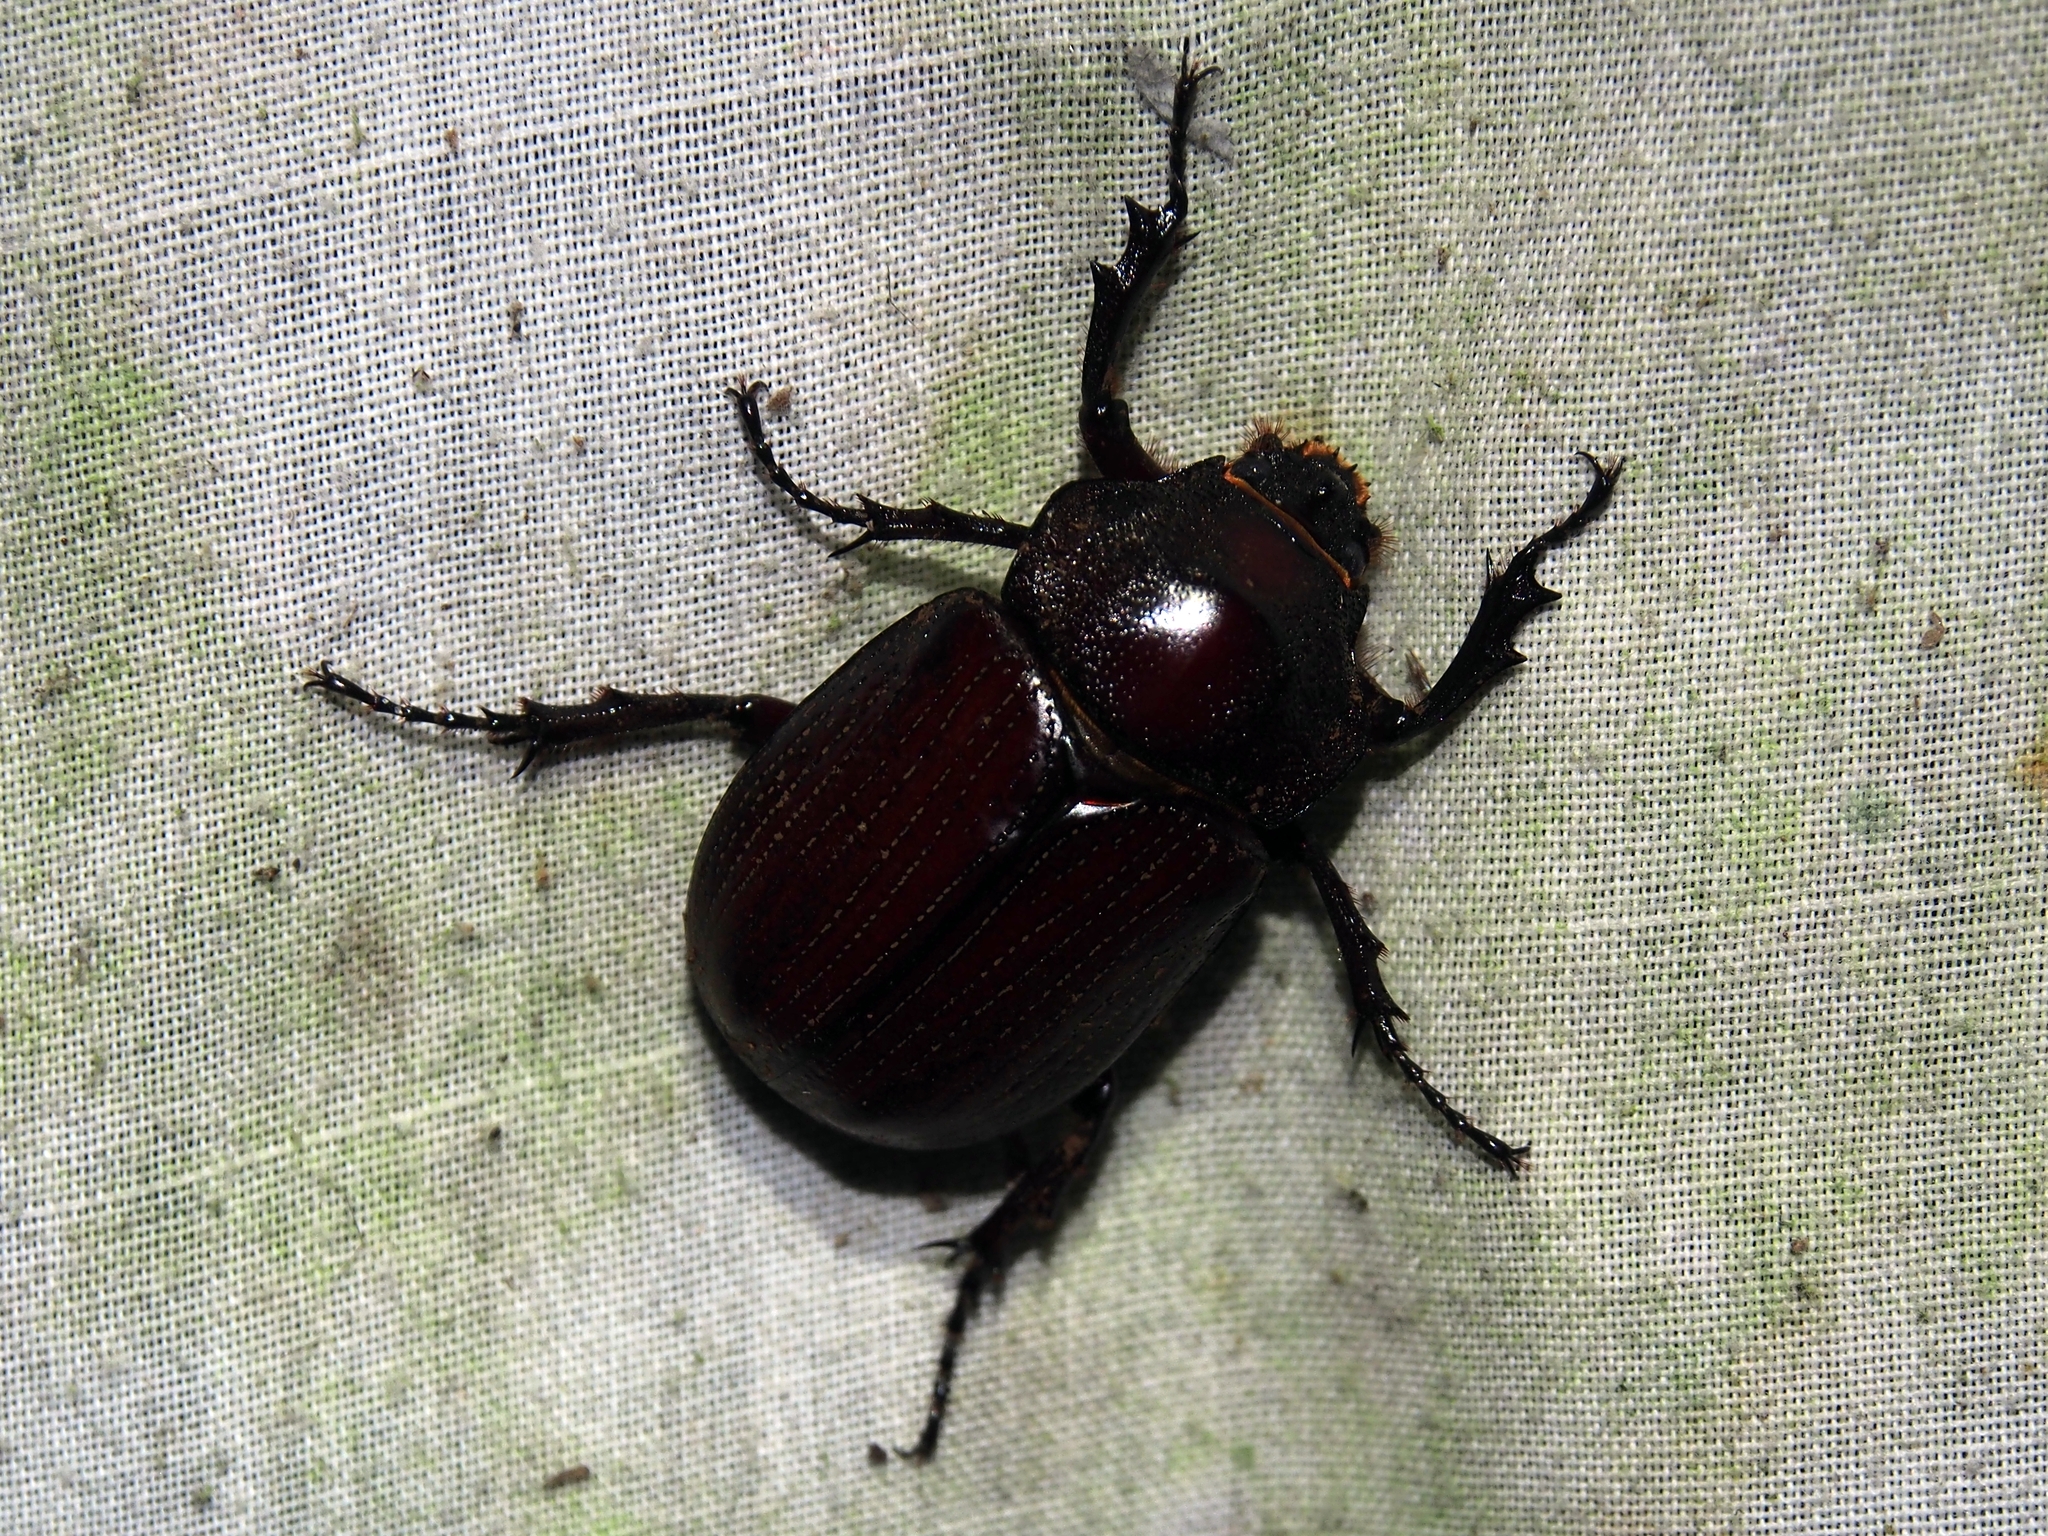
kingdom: Animalia
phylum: Arthropoda
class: Insecta
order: Coleoptera
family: Scarabaeidae
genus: Coelosis
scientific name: Coelosis biloba
